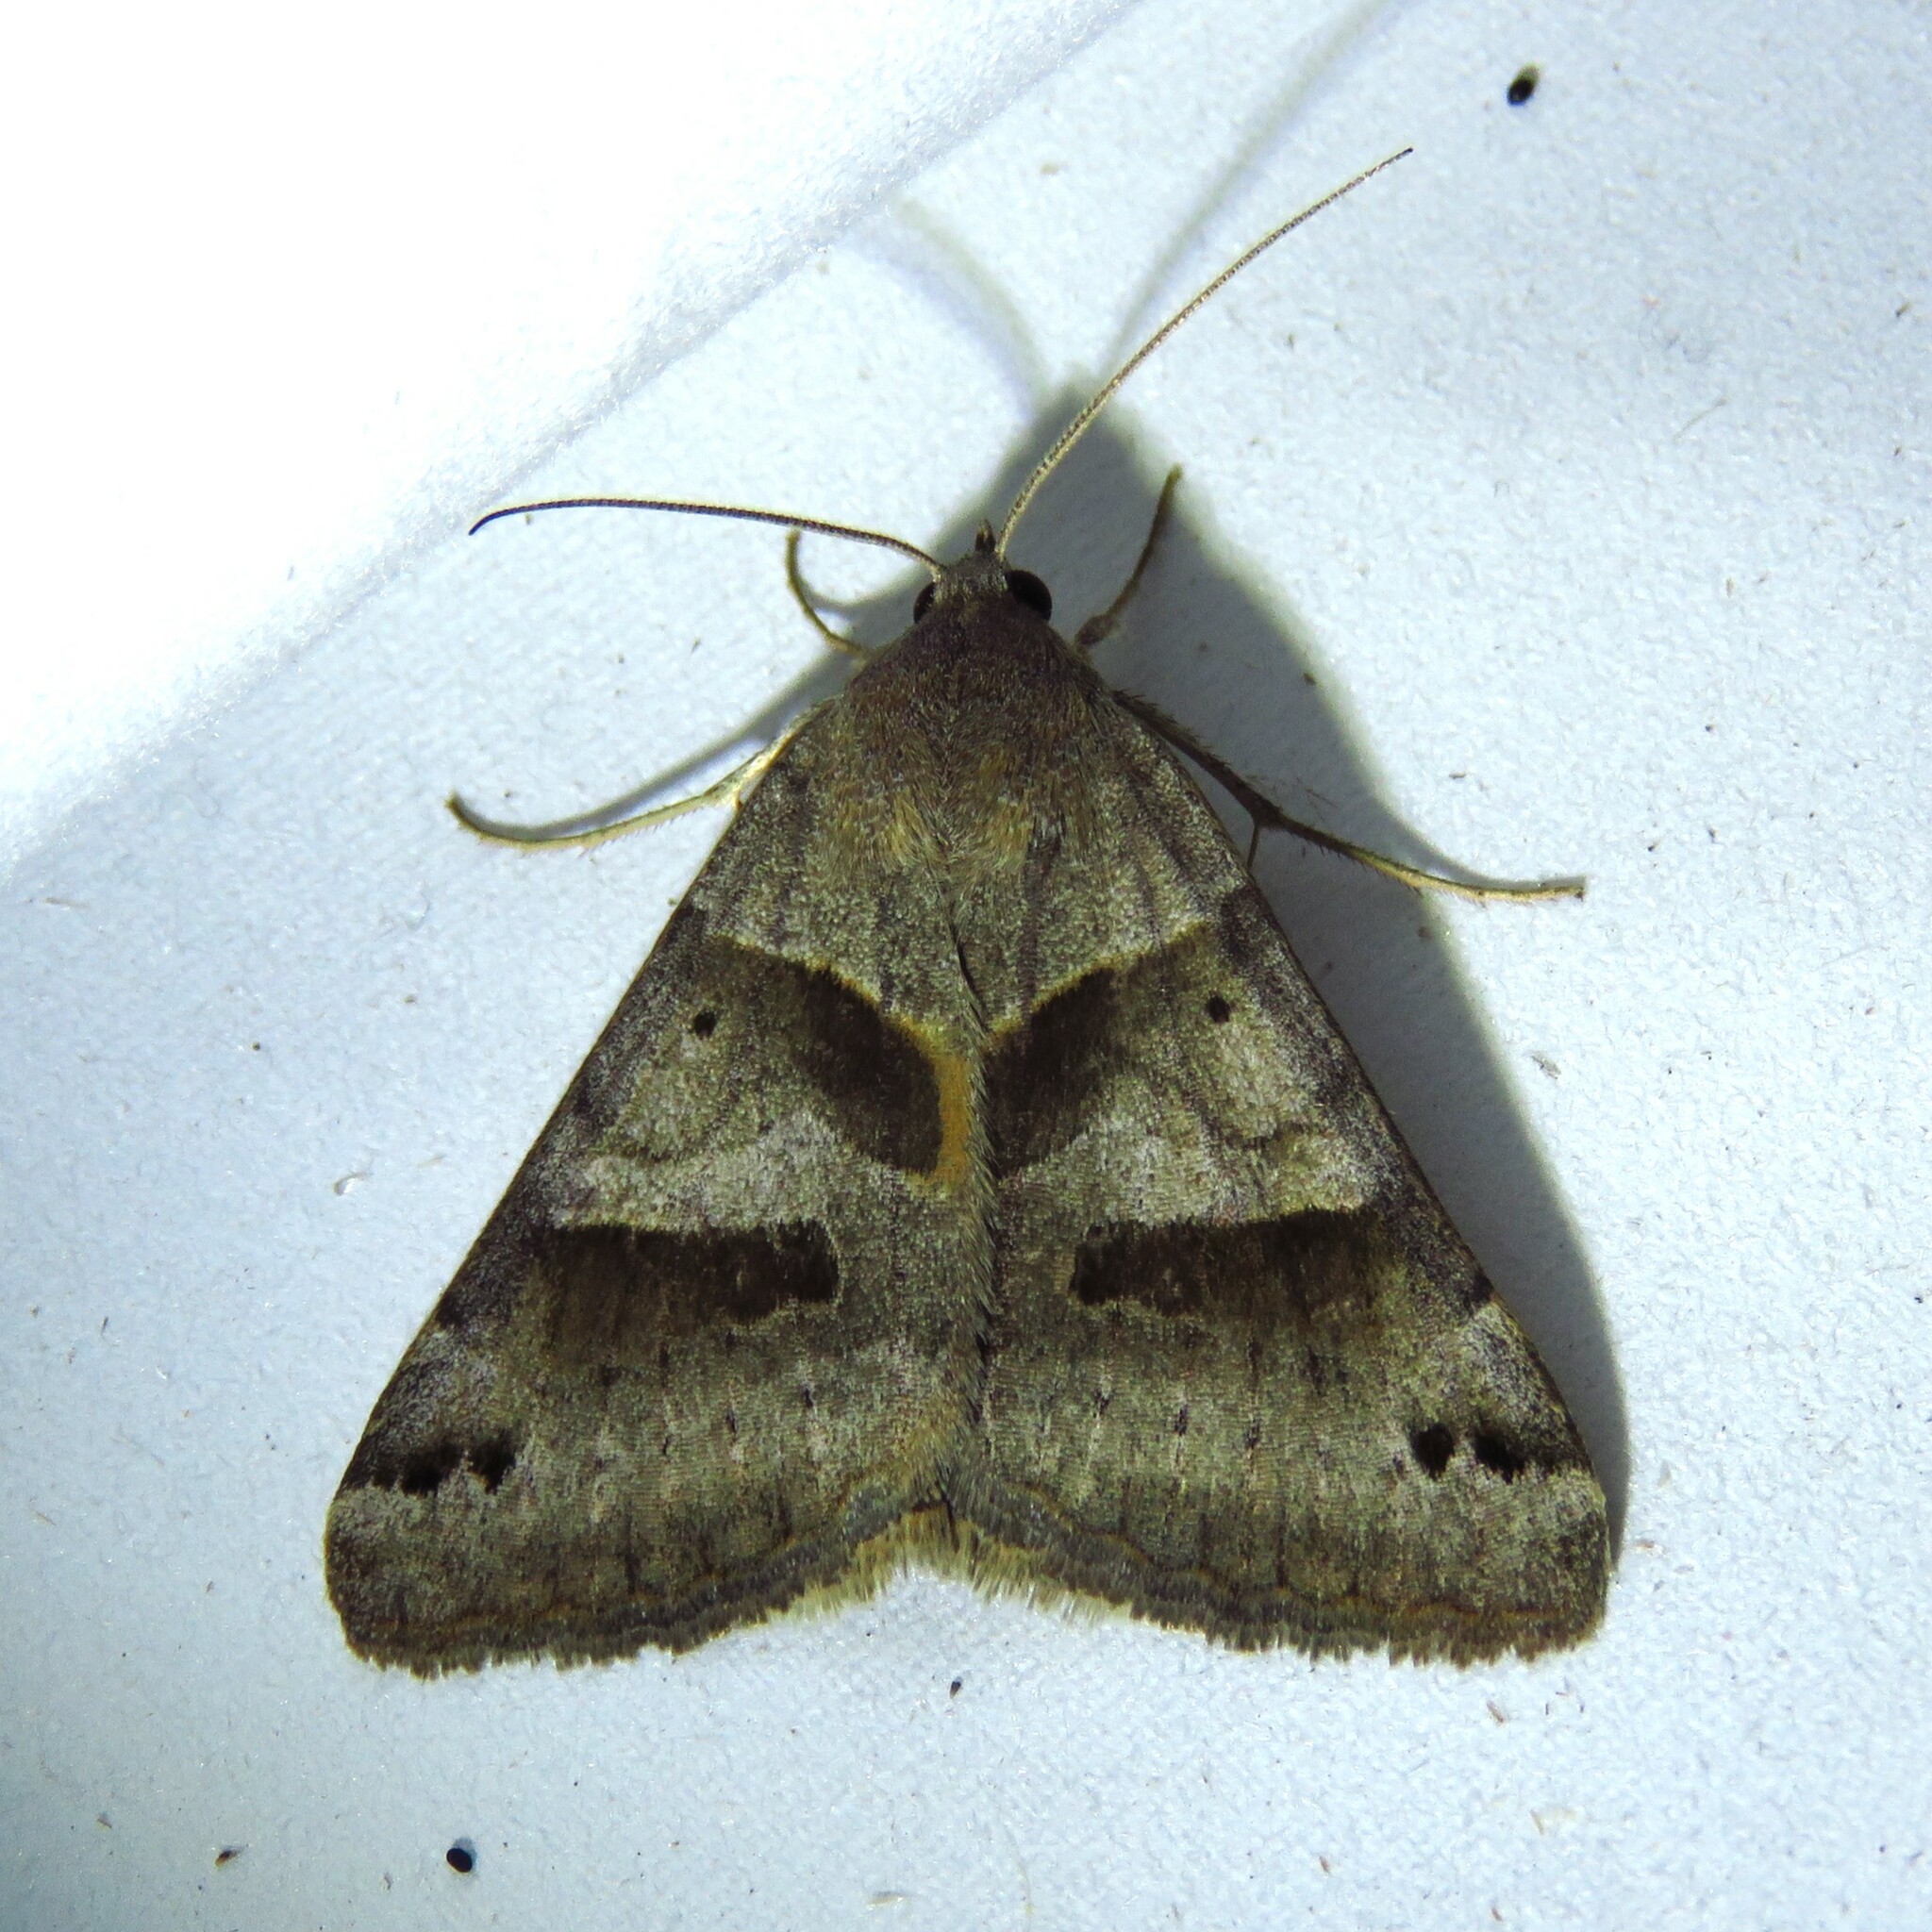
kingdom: Animalia
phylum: Arthropoda
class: Insecta
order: Lepidoptera
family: Erebidae
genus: Caenurgina
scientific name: Caenurgina erechtea
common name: Forage looper moth
